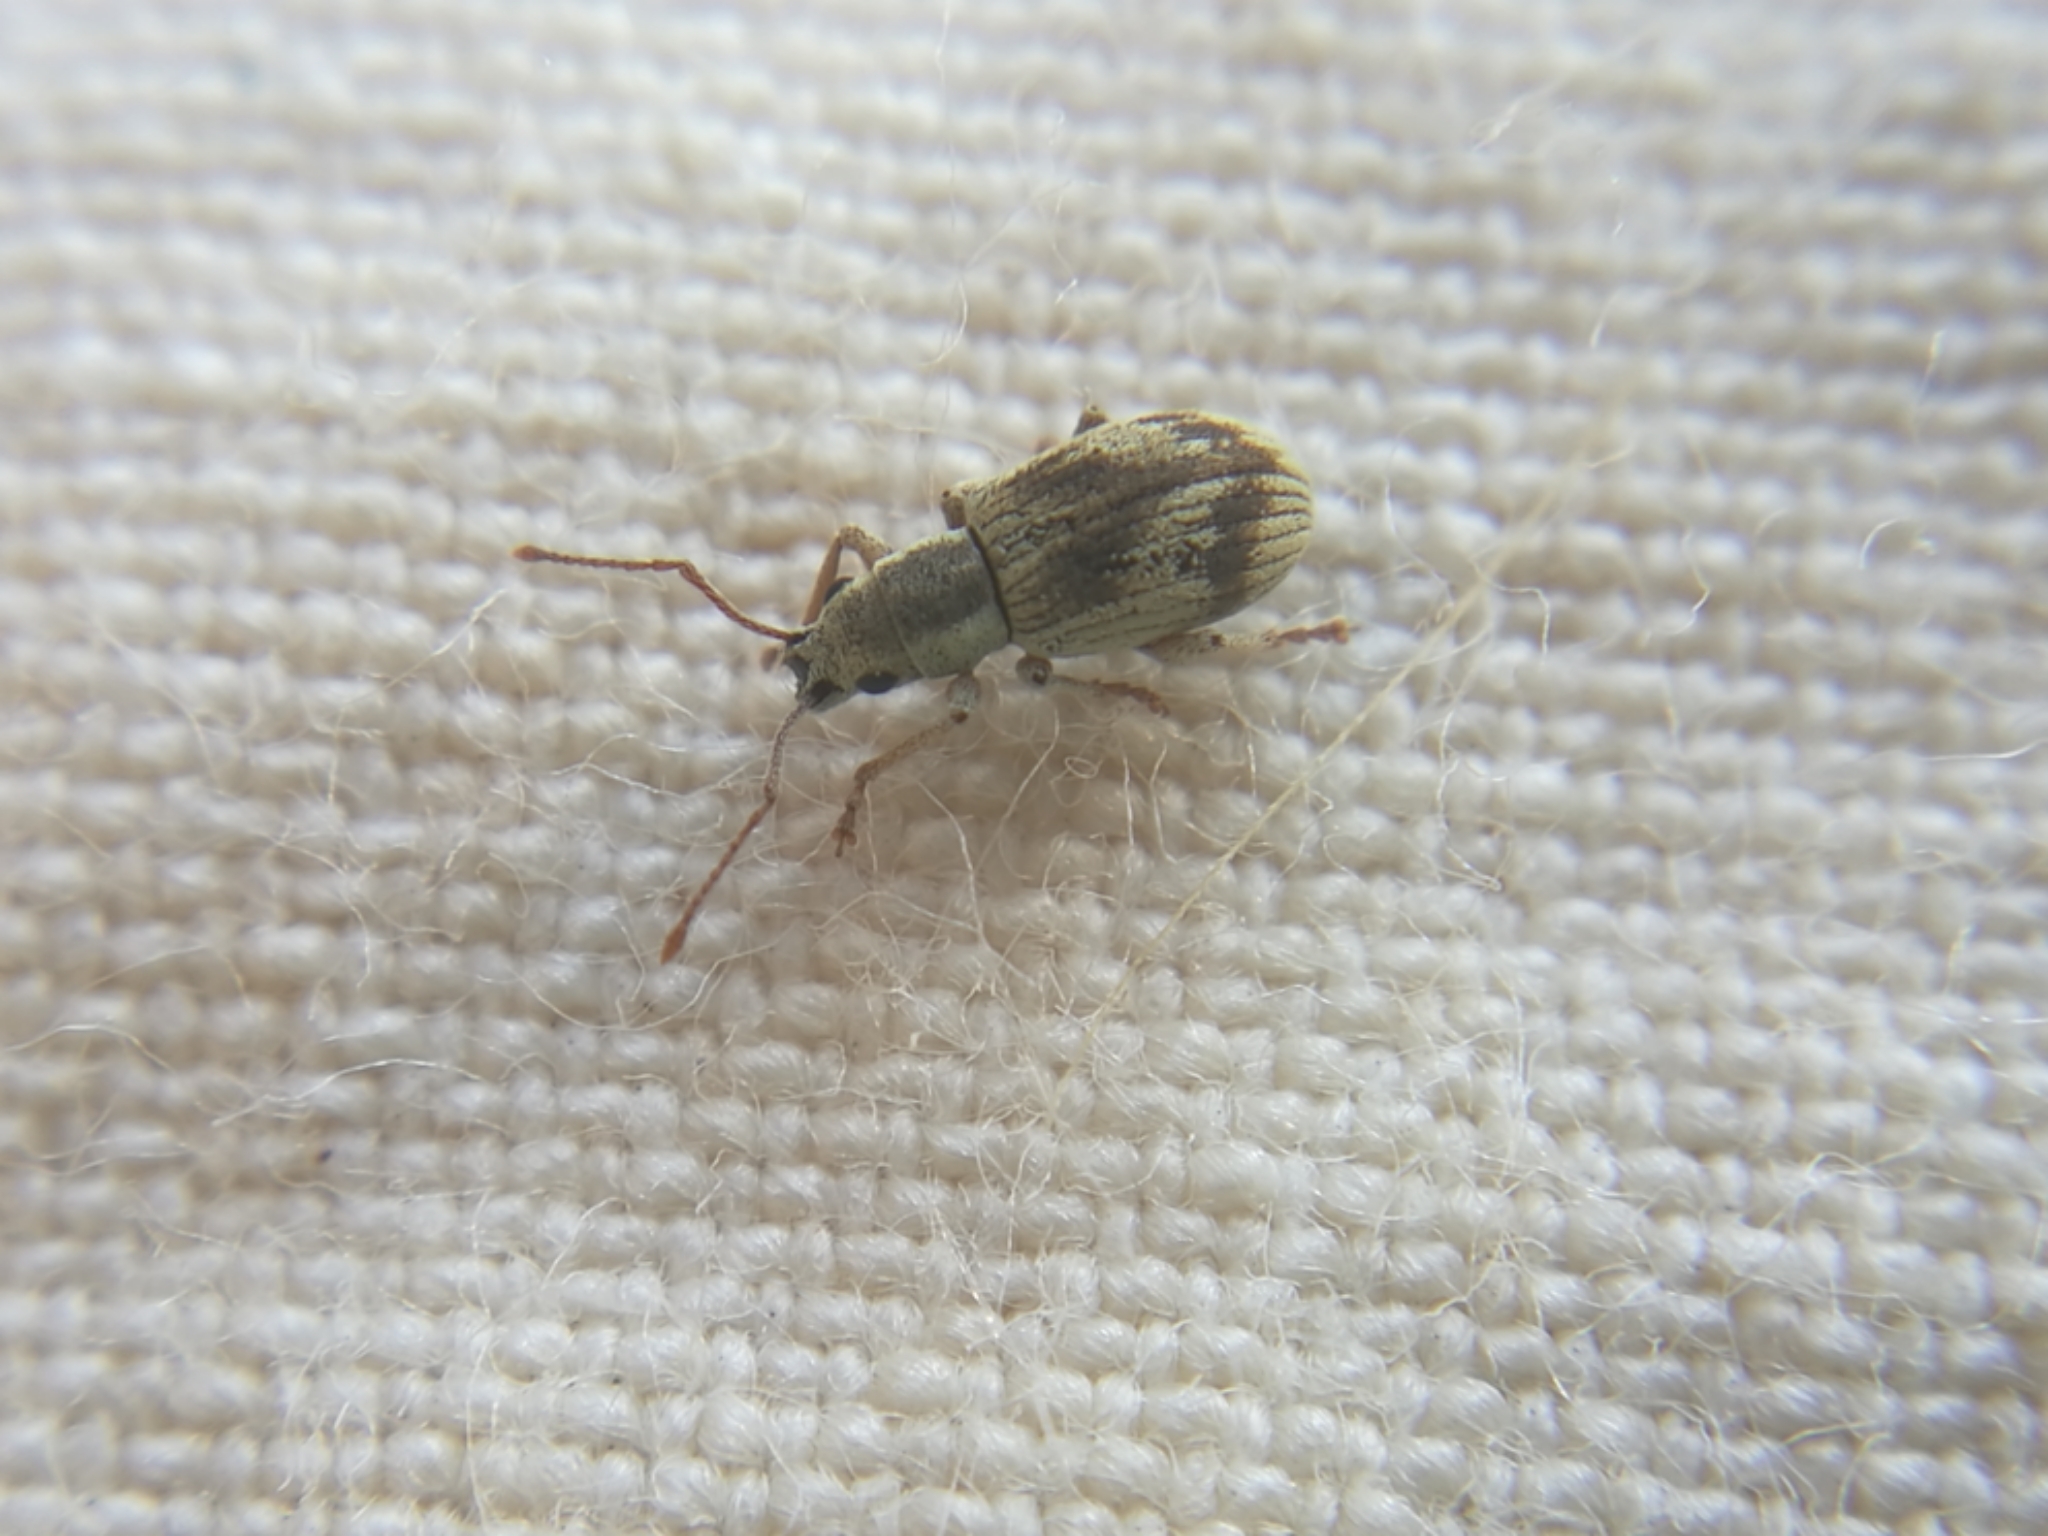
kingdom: Animalia
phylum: Arthropoda
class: Insecta
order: Coleoptera
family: Curculionidae
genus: Pseudomyllocerus
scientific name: Pseudomyllocerus neapolitanus
